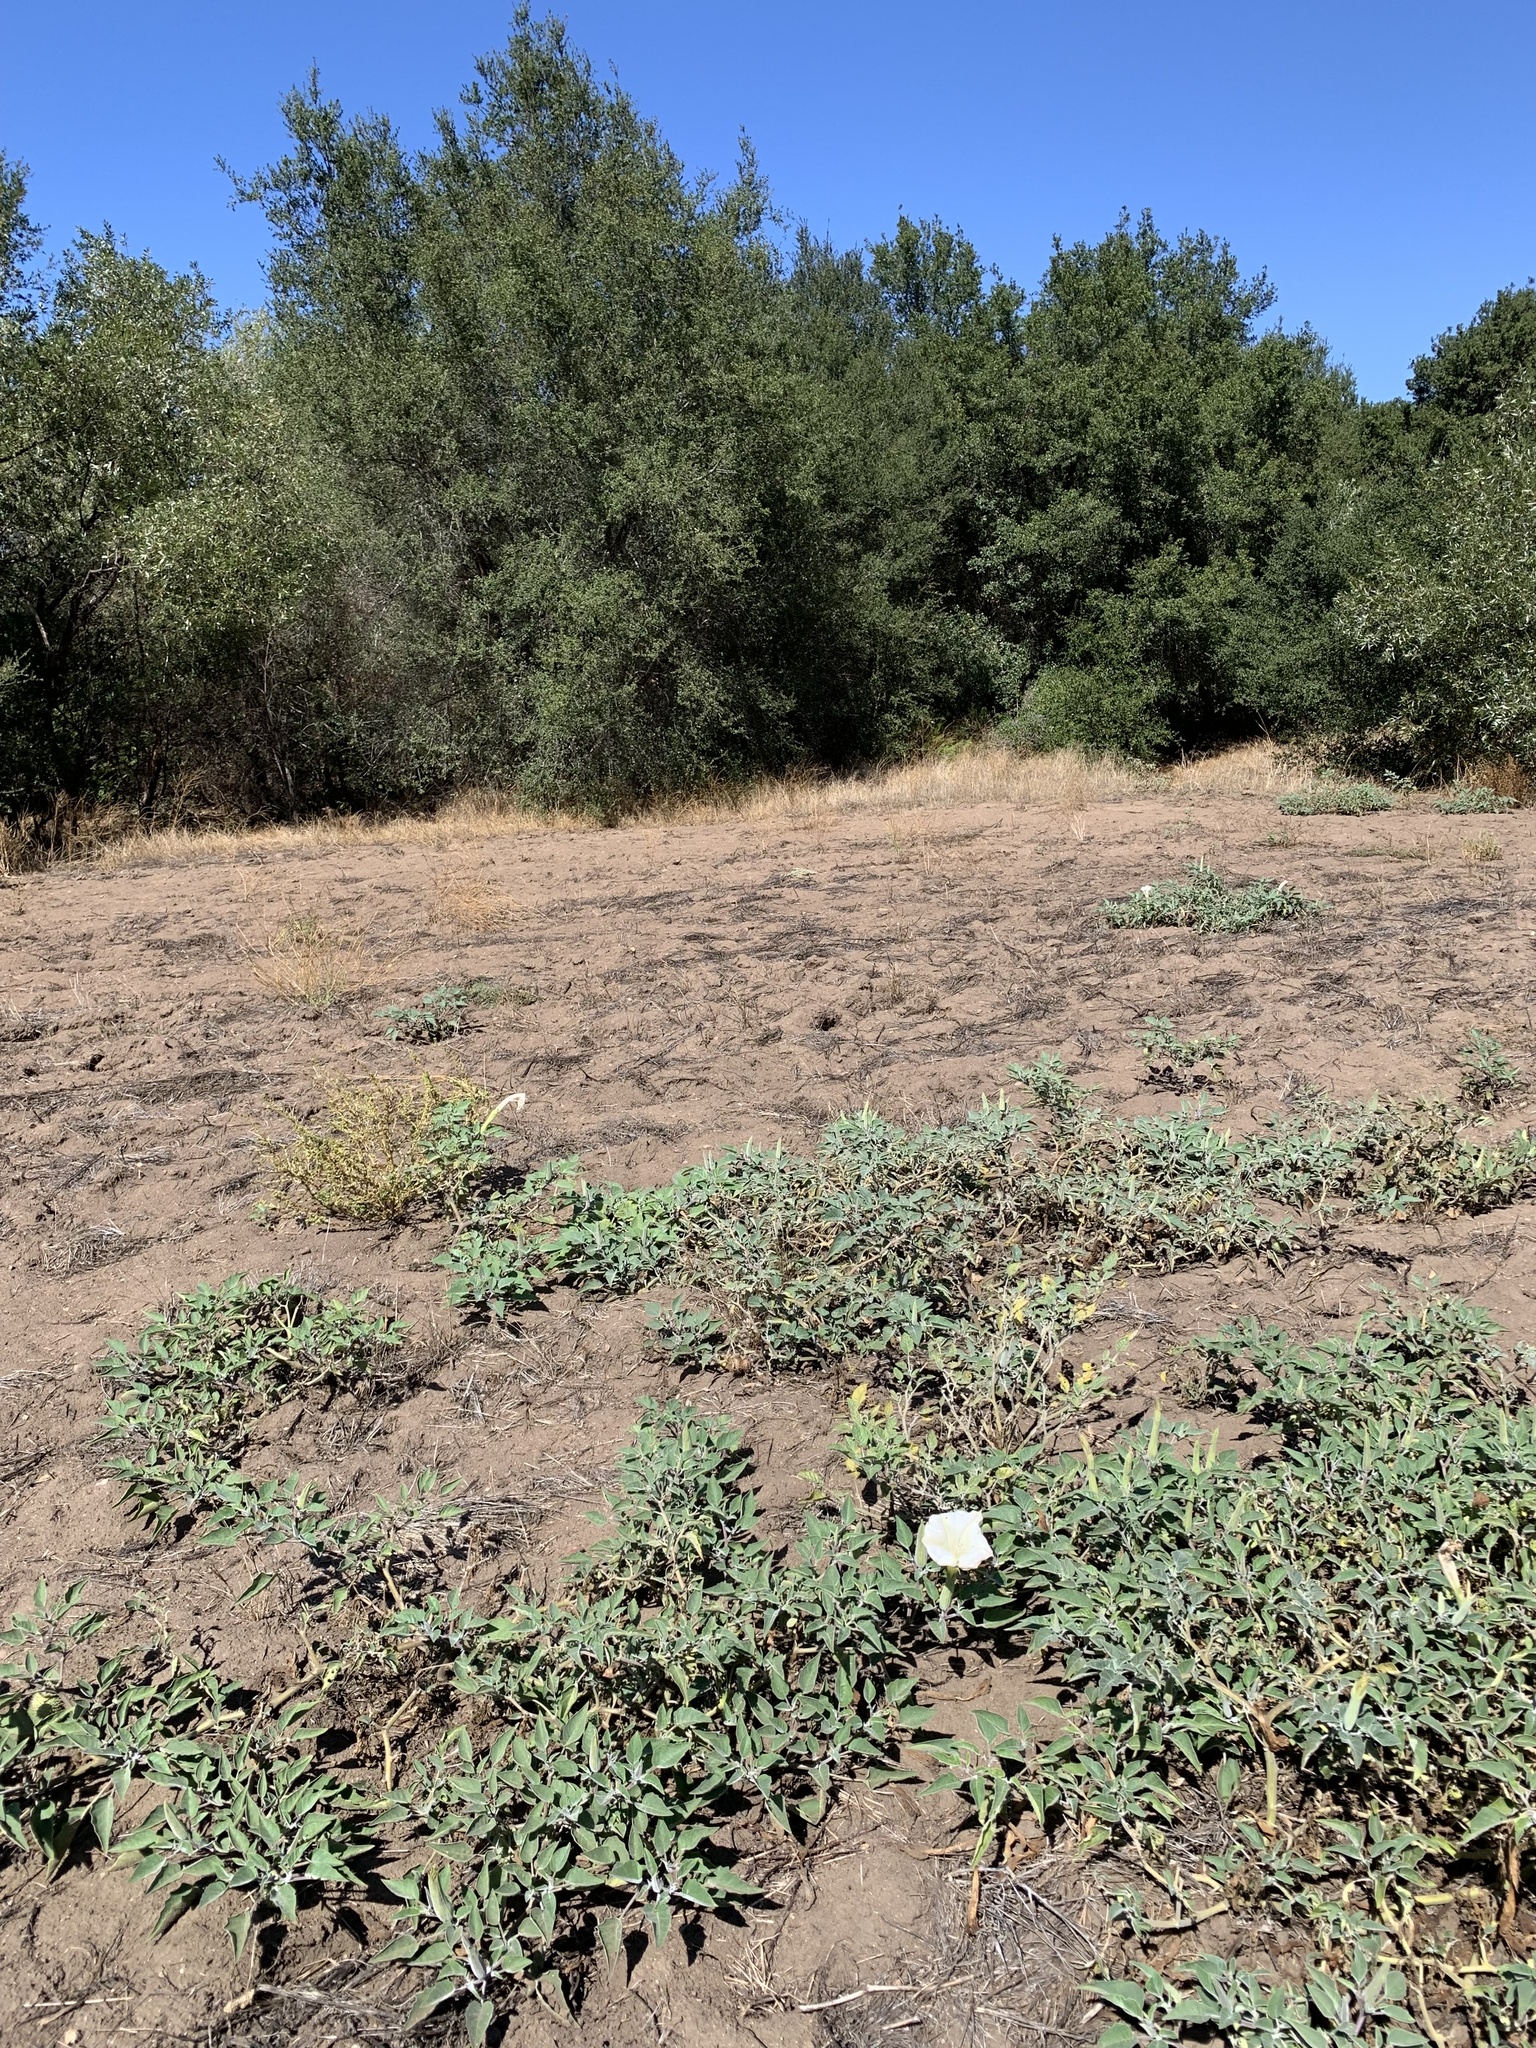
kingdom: Plantae
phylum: Tracheophyta
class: Magnoliopsida
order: Solanales
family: Solanaceae
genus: Datura
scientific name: Datura wrightii
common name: Sacred thorn-apple
